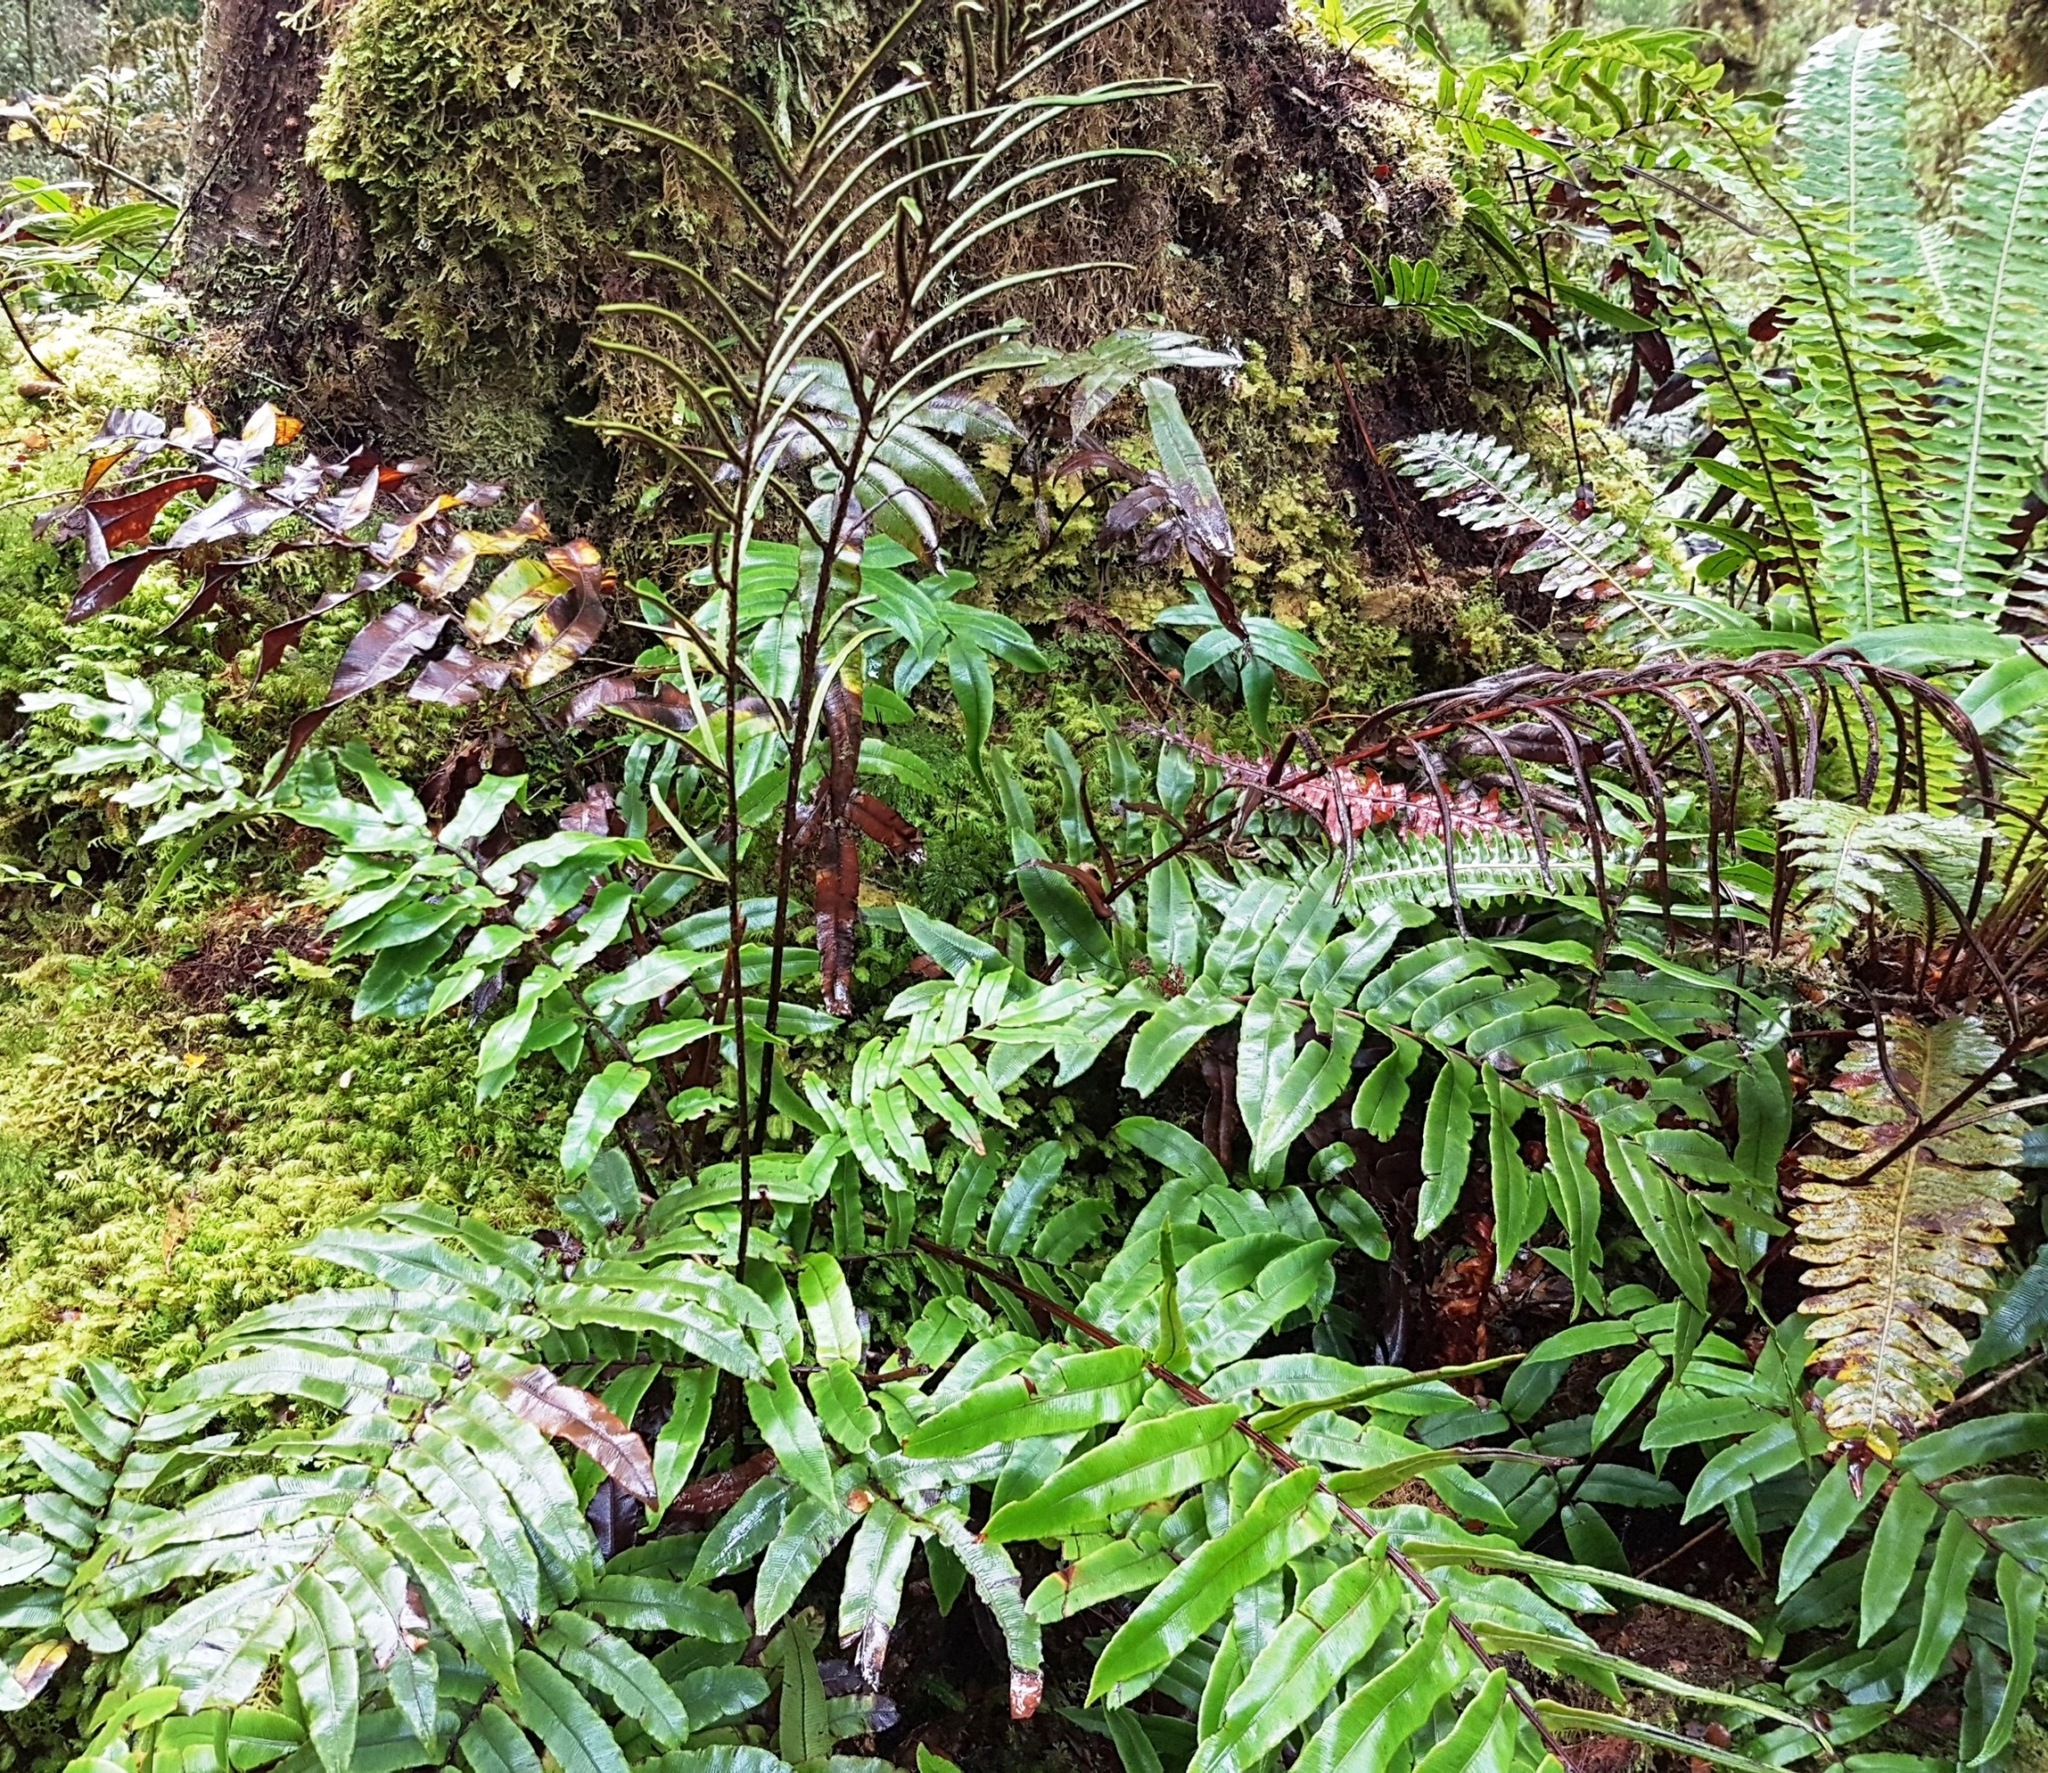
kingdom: Plantae
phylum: Tracheophyta
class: Polypodiopsida
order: Polypodiales
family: Blechnaceae
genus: Parablechnum
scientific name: Parablechnum procerum
